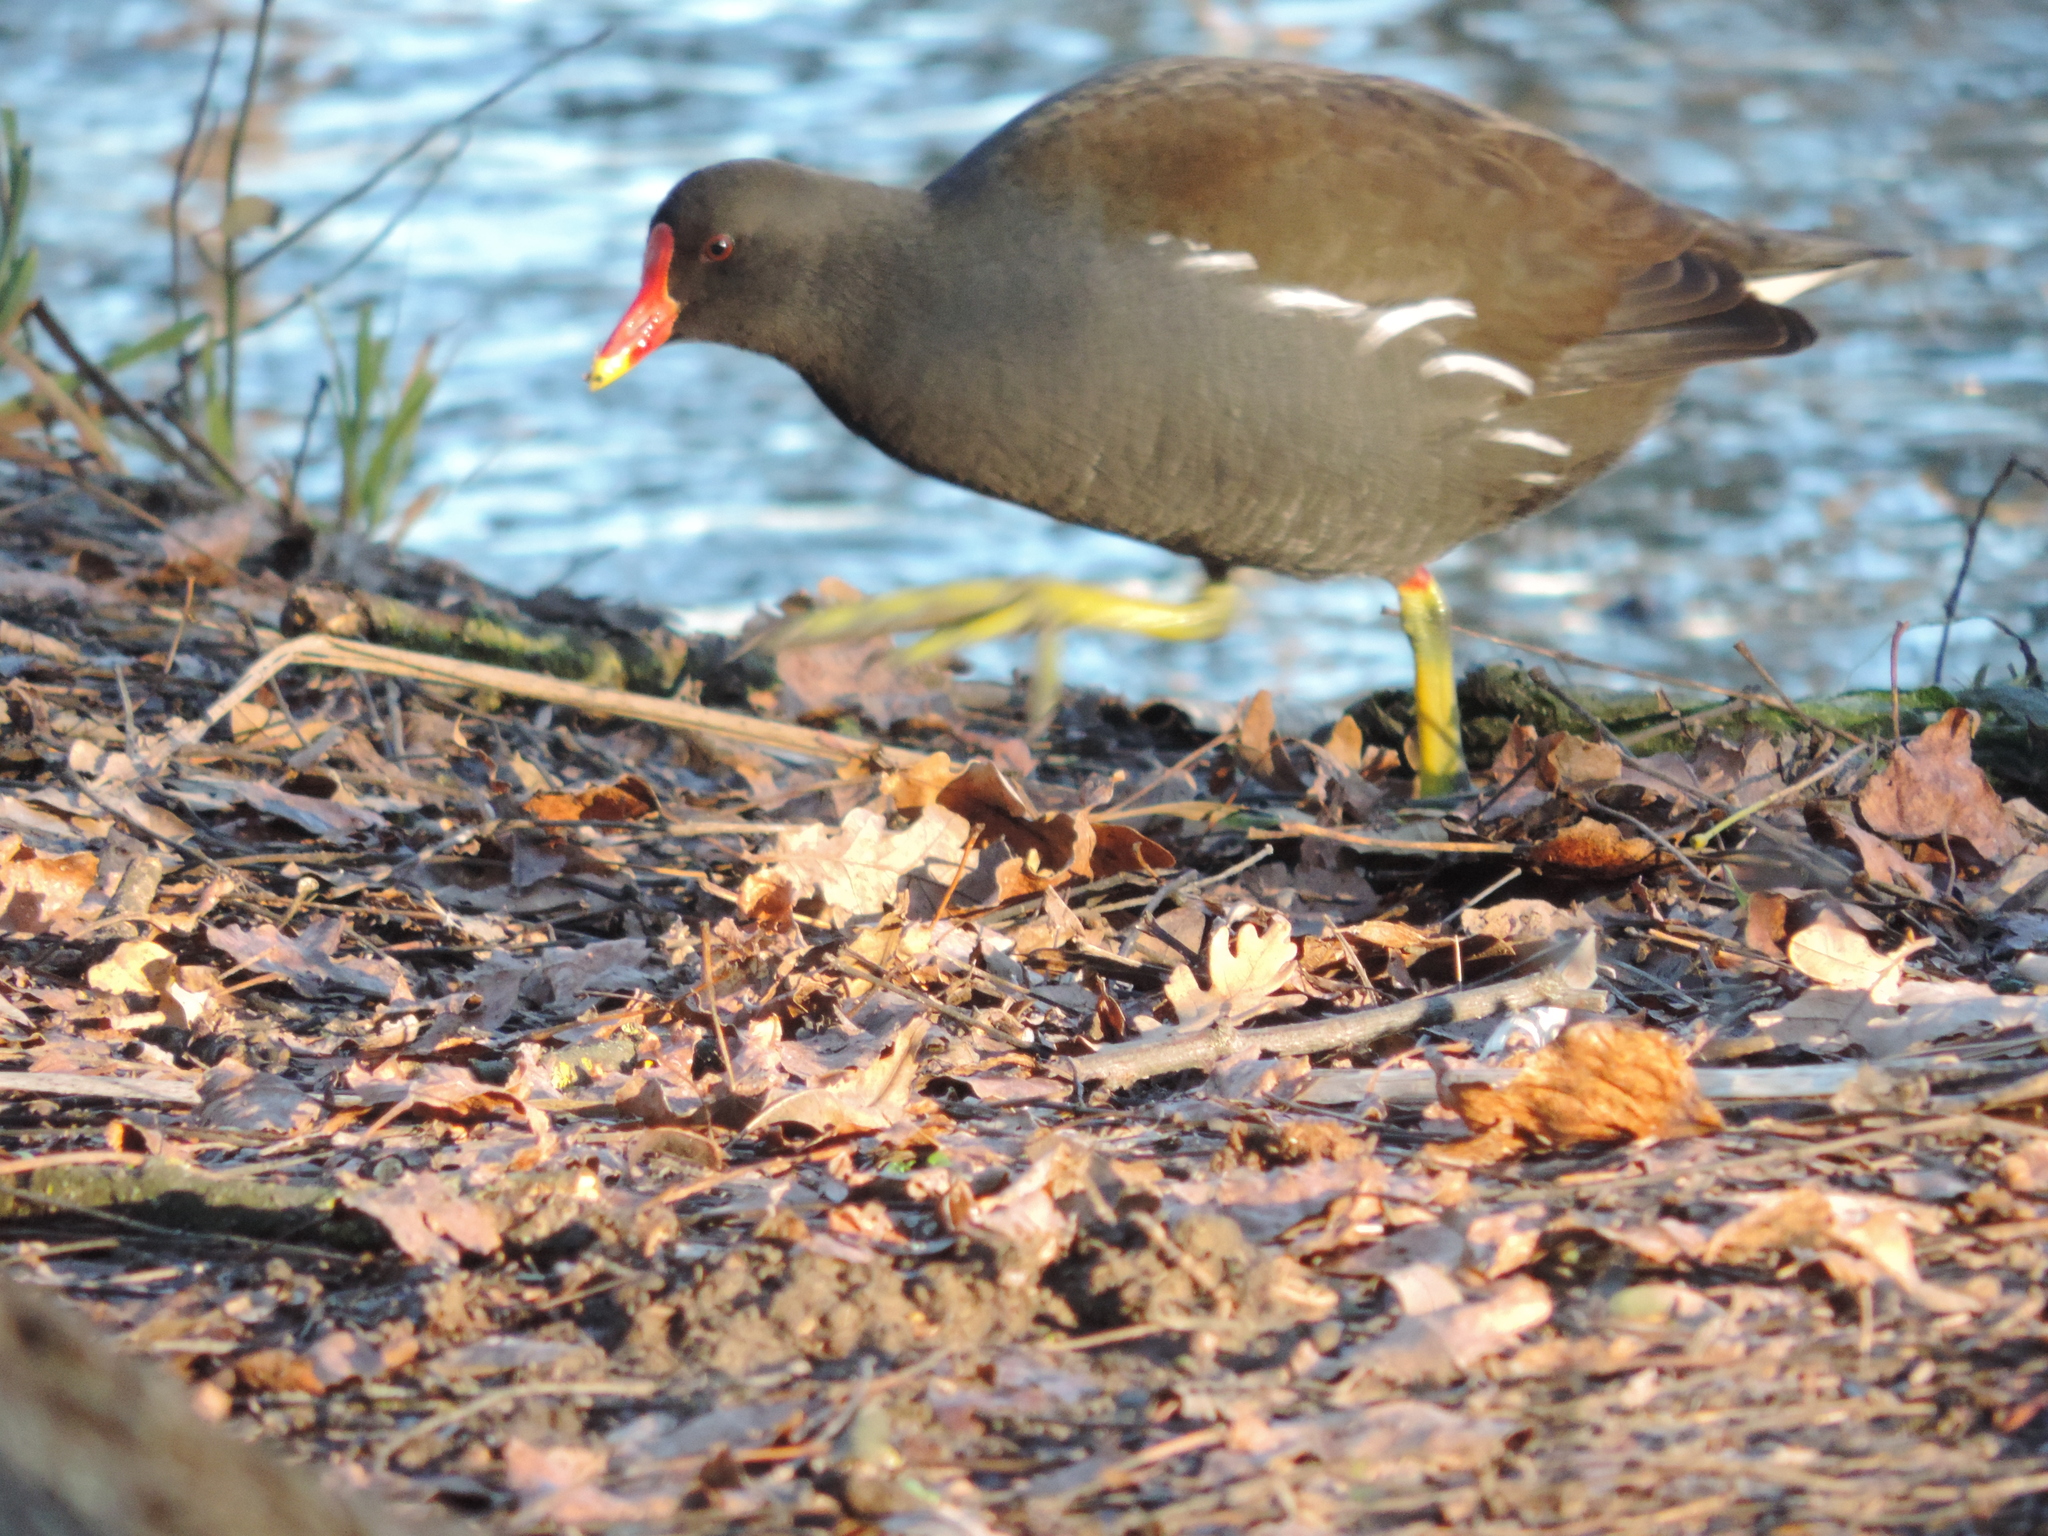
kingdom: Animalia
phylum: Chordata
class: Aves
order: Gruiformes
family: Rallidae
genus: Gallinula
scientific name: Gallinula chloropus
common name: Common moorhen
